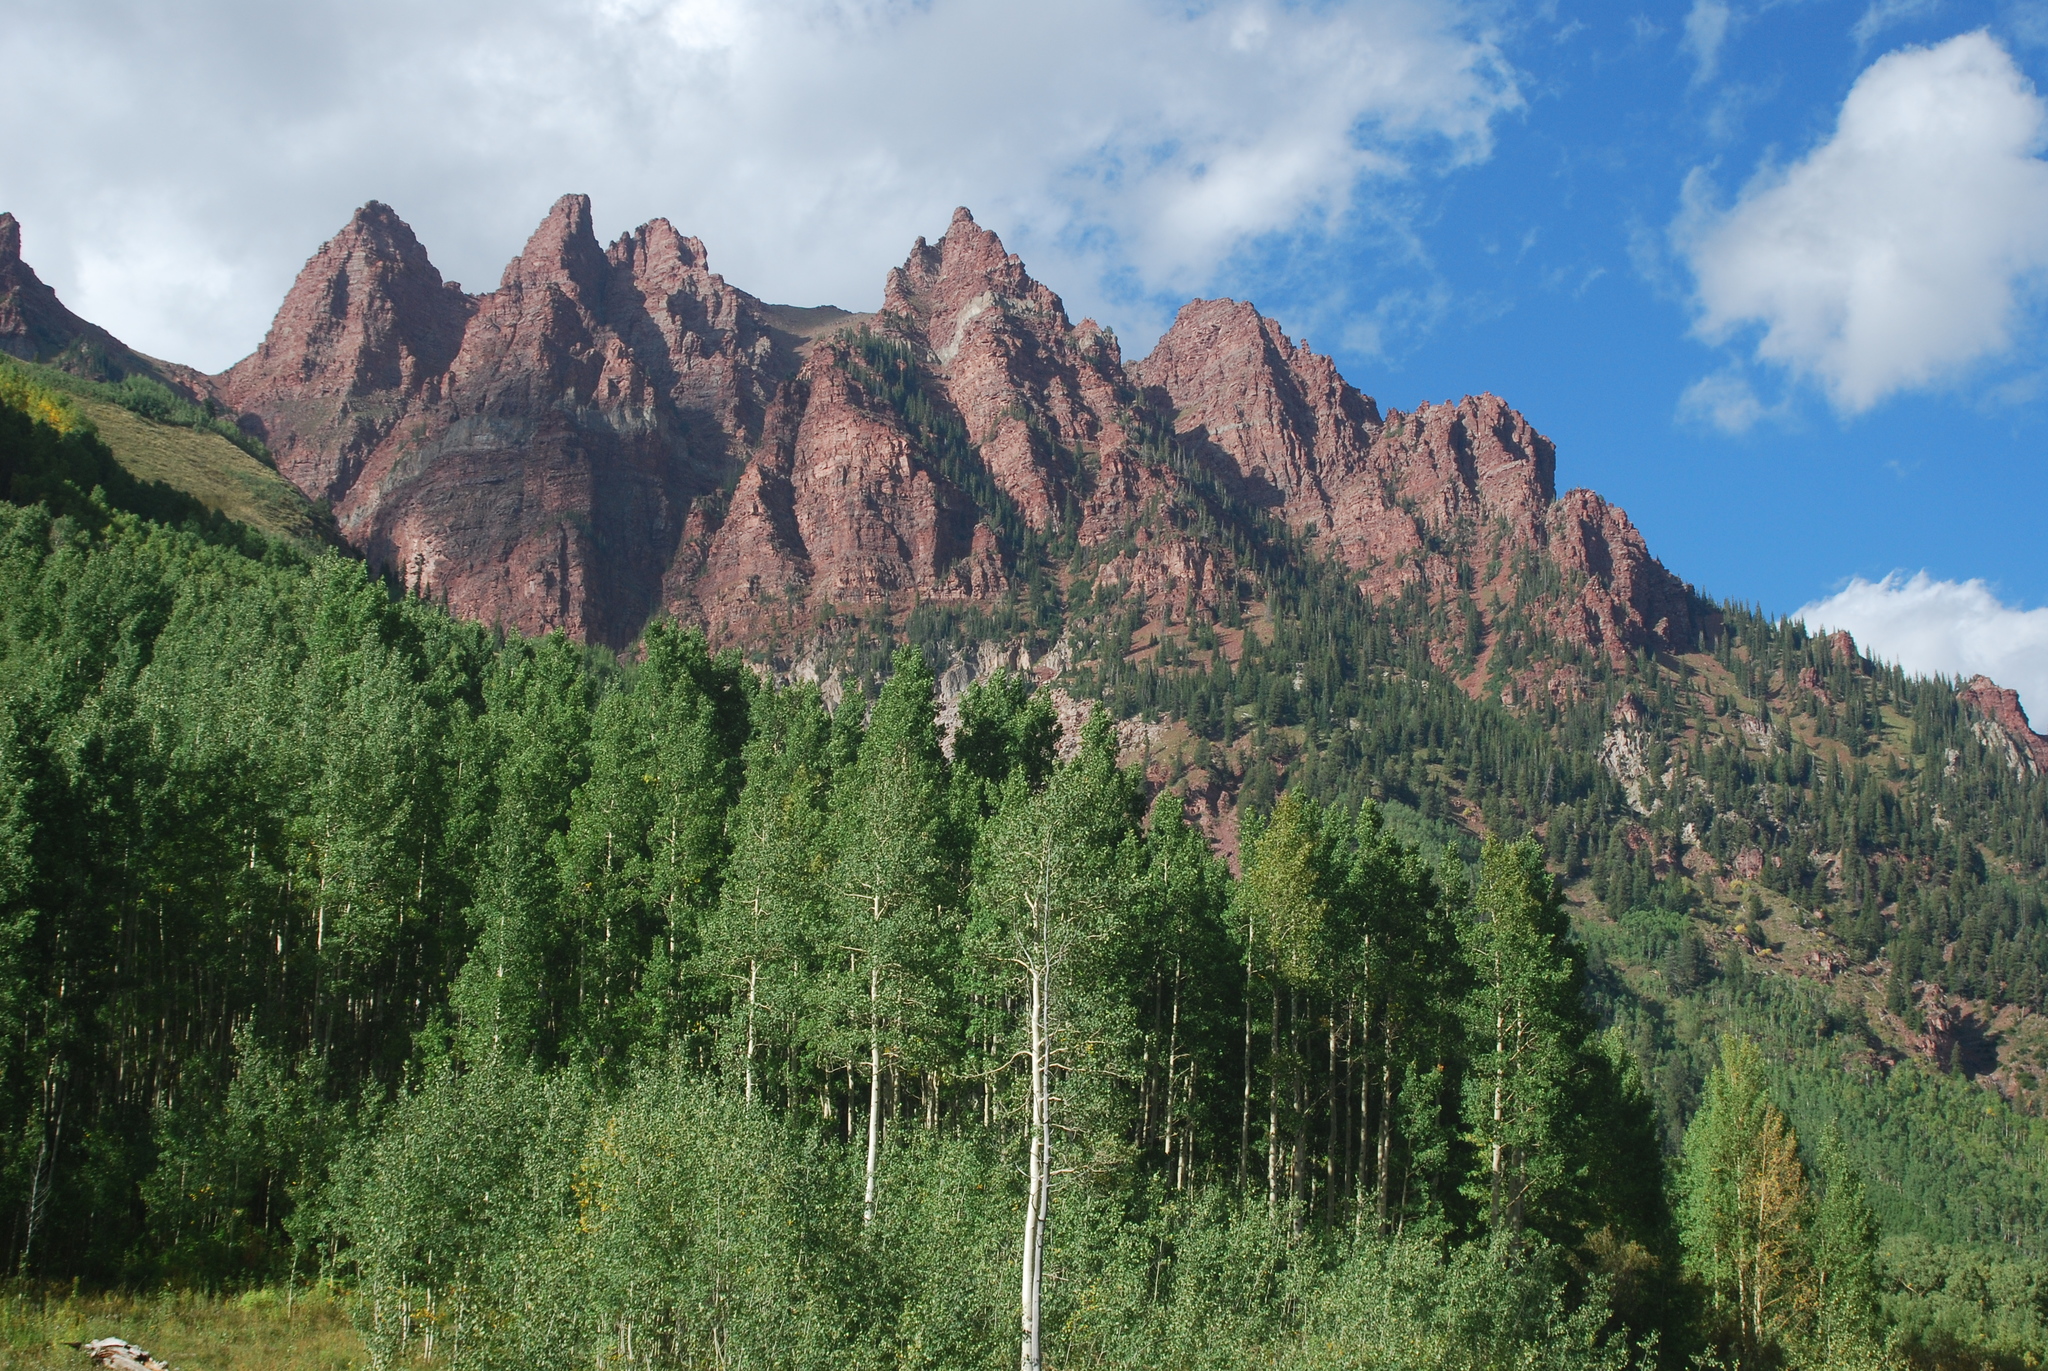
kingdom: Plantae
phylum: Tracheophyta
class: Magnoliopsida
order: Malpighiales
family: Salicaceae
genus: Populus
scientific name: Populus tremuloides
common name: Quaking aspen
